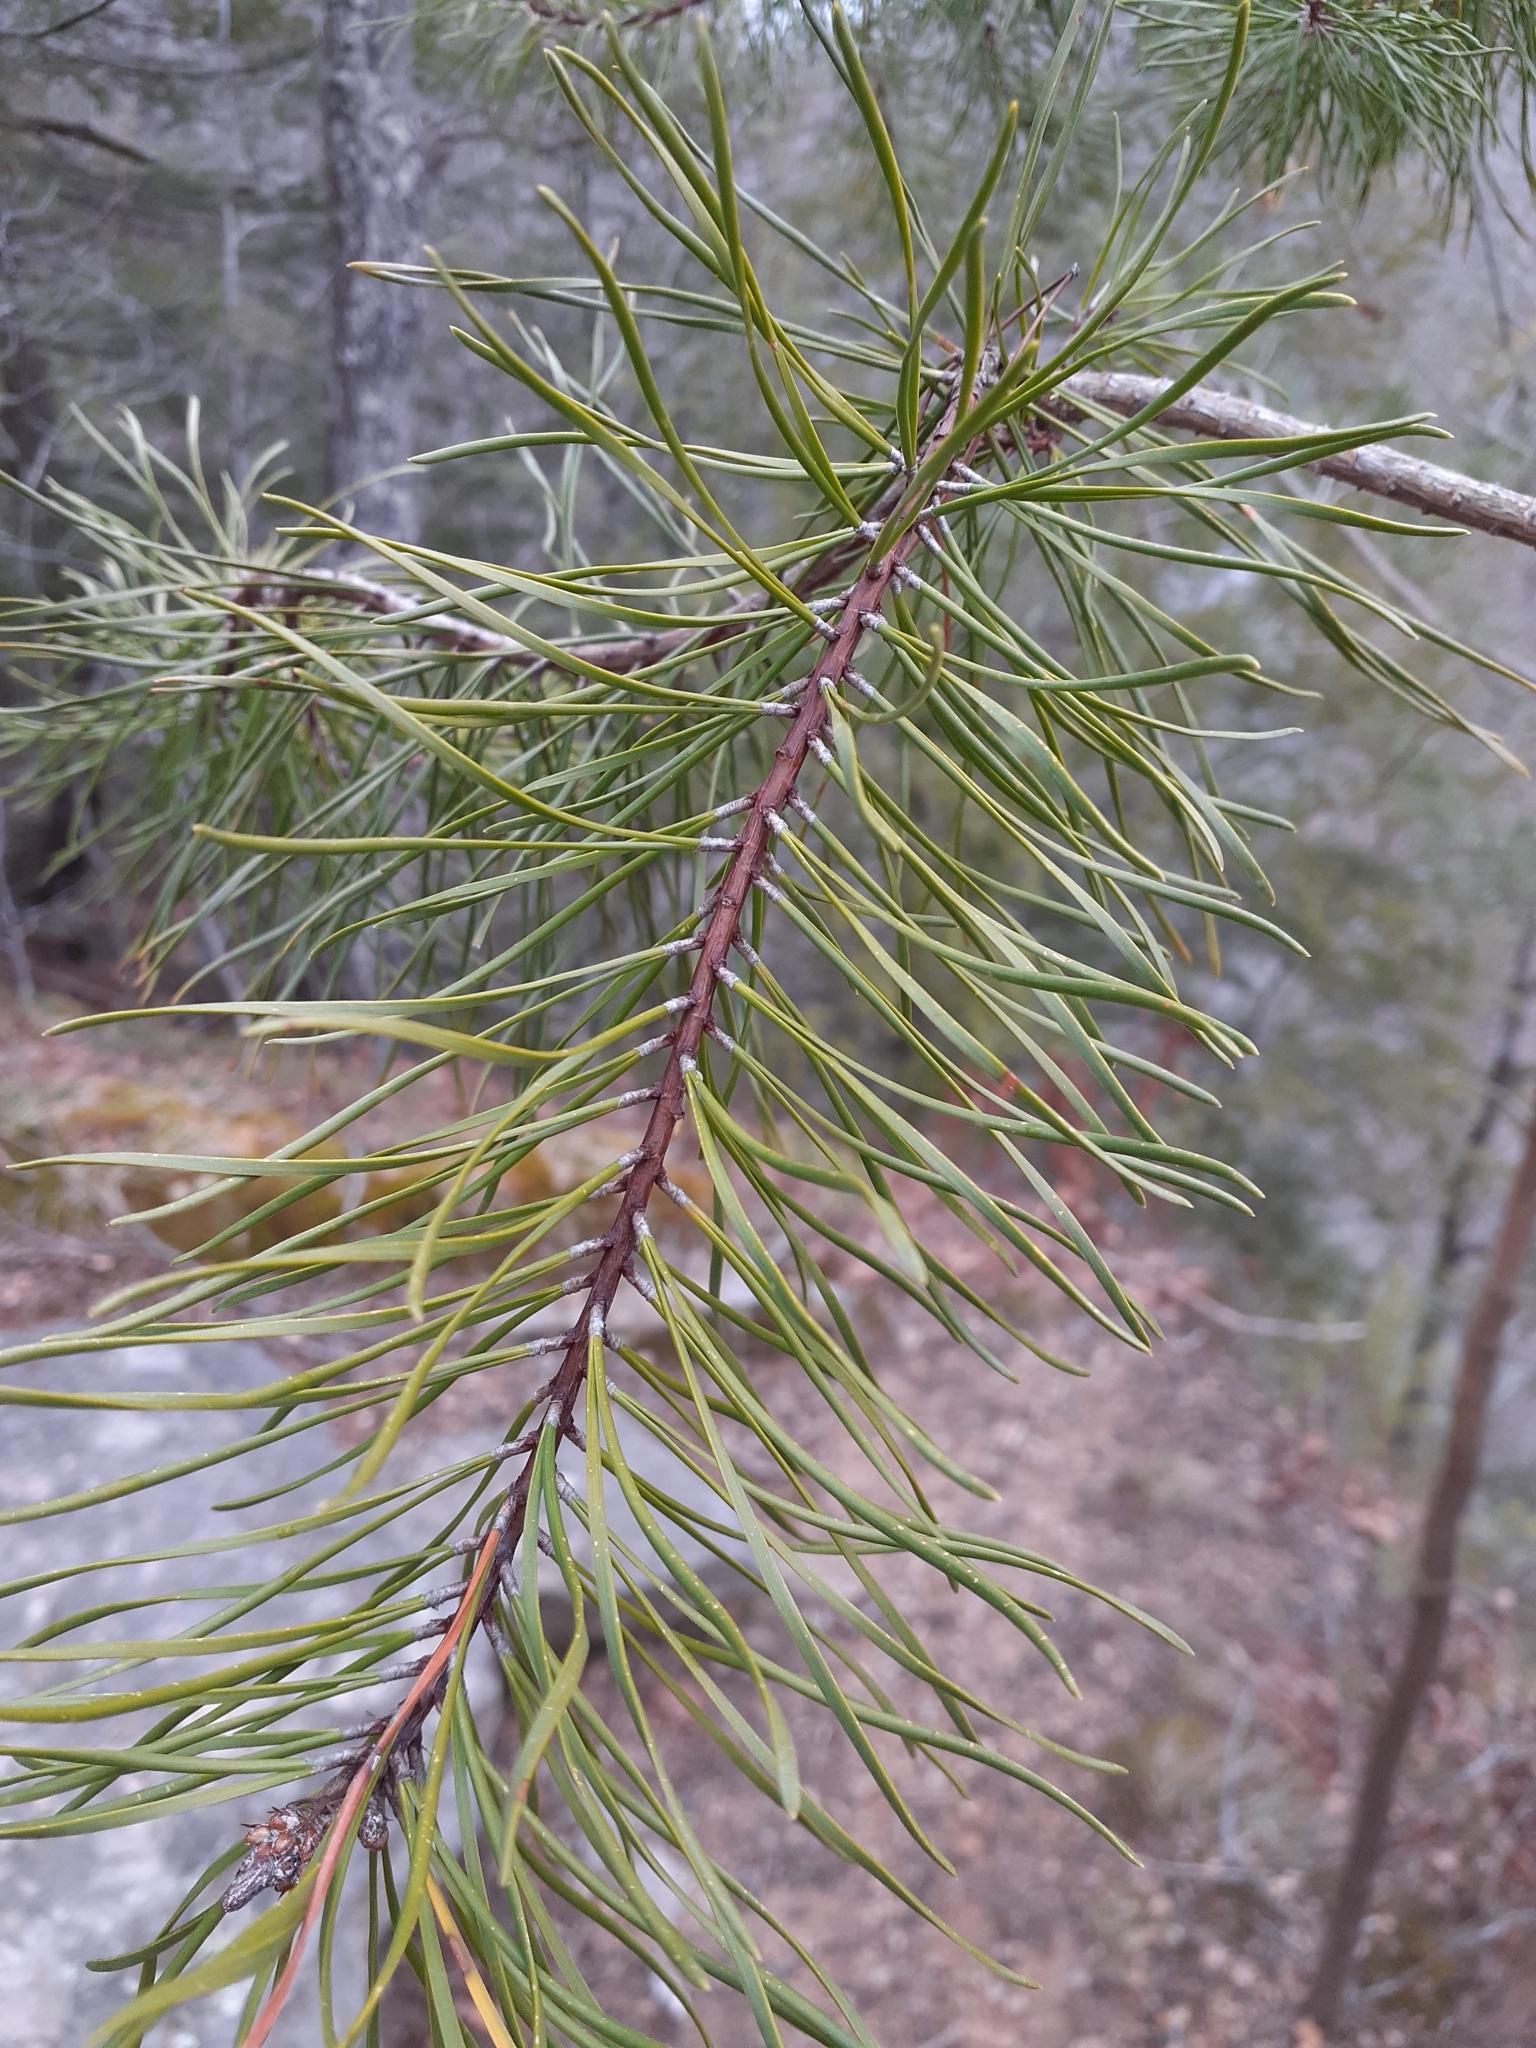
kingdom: Plantae
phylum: Tracheophyta
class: Pinopsida
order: Pinales
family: Pinaceae
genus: Pinus
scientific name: Pinus virginiana
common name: Scrub pine
